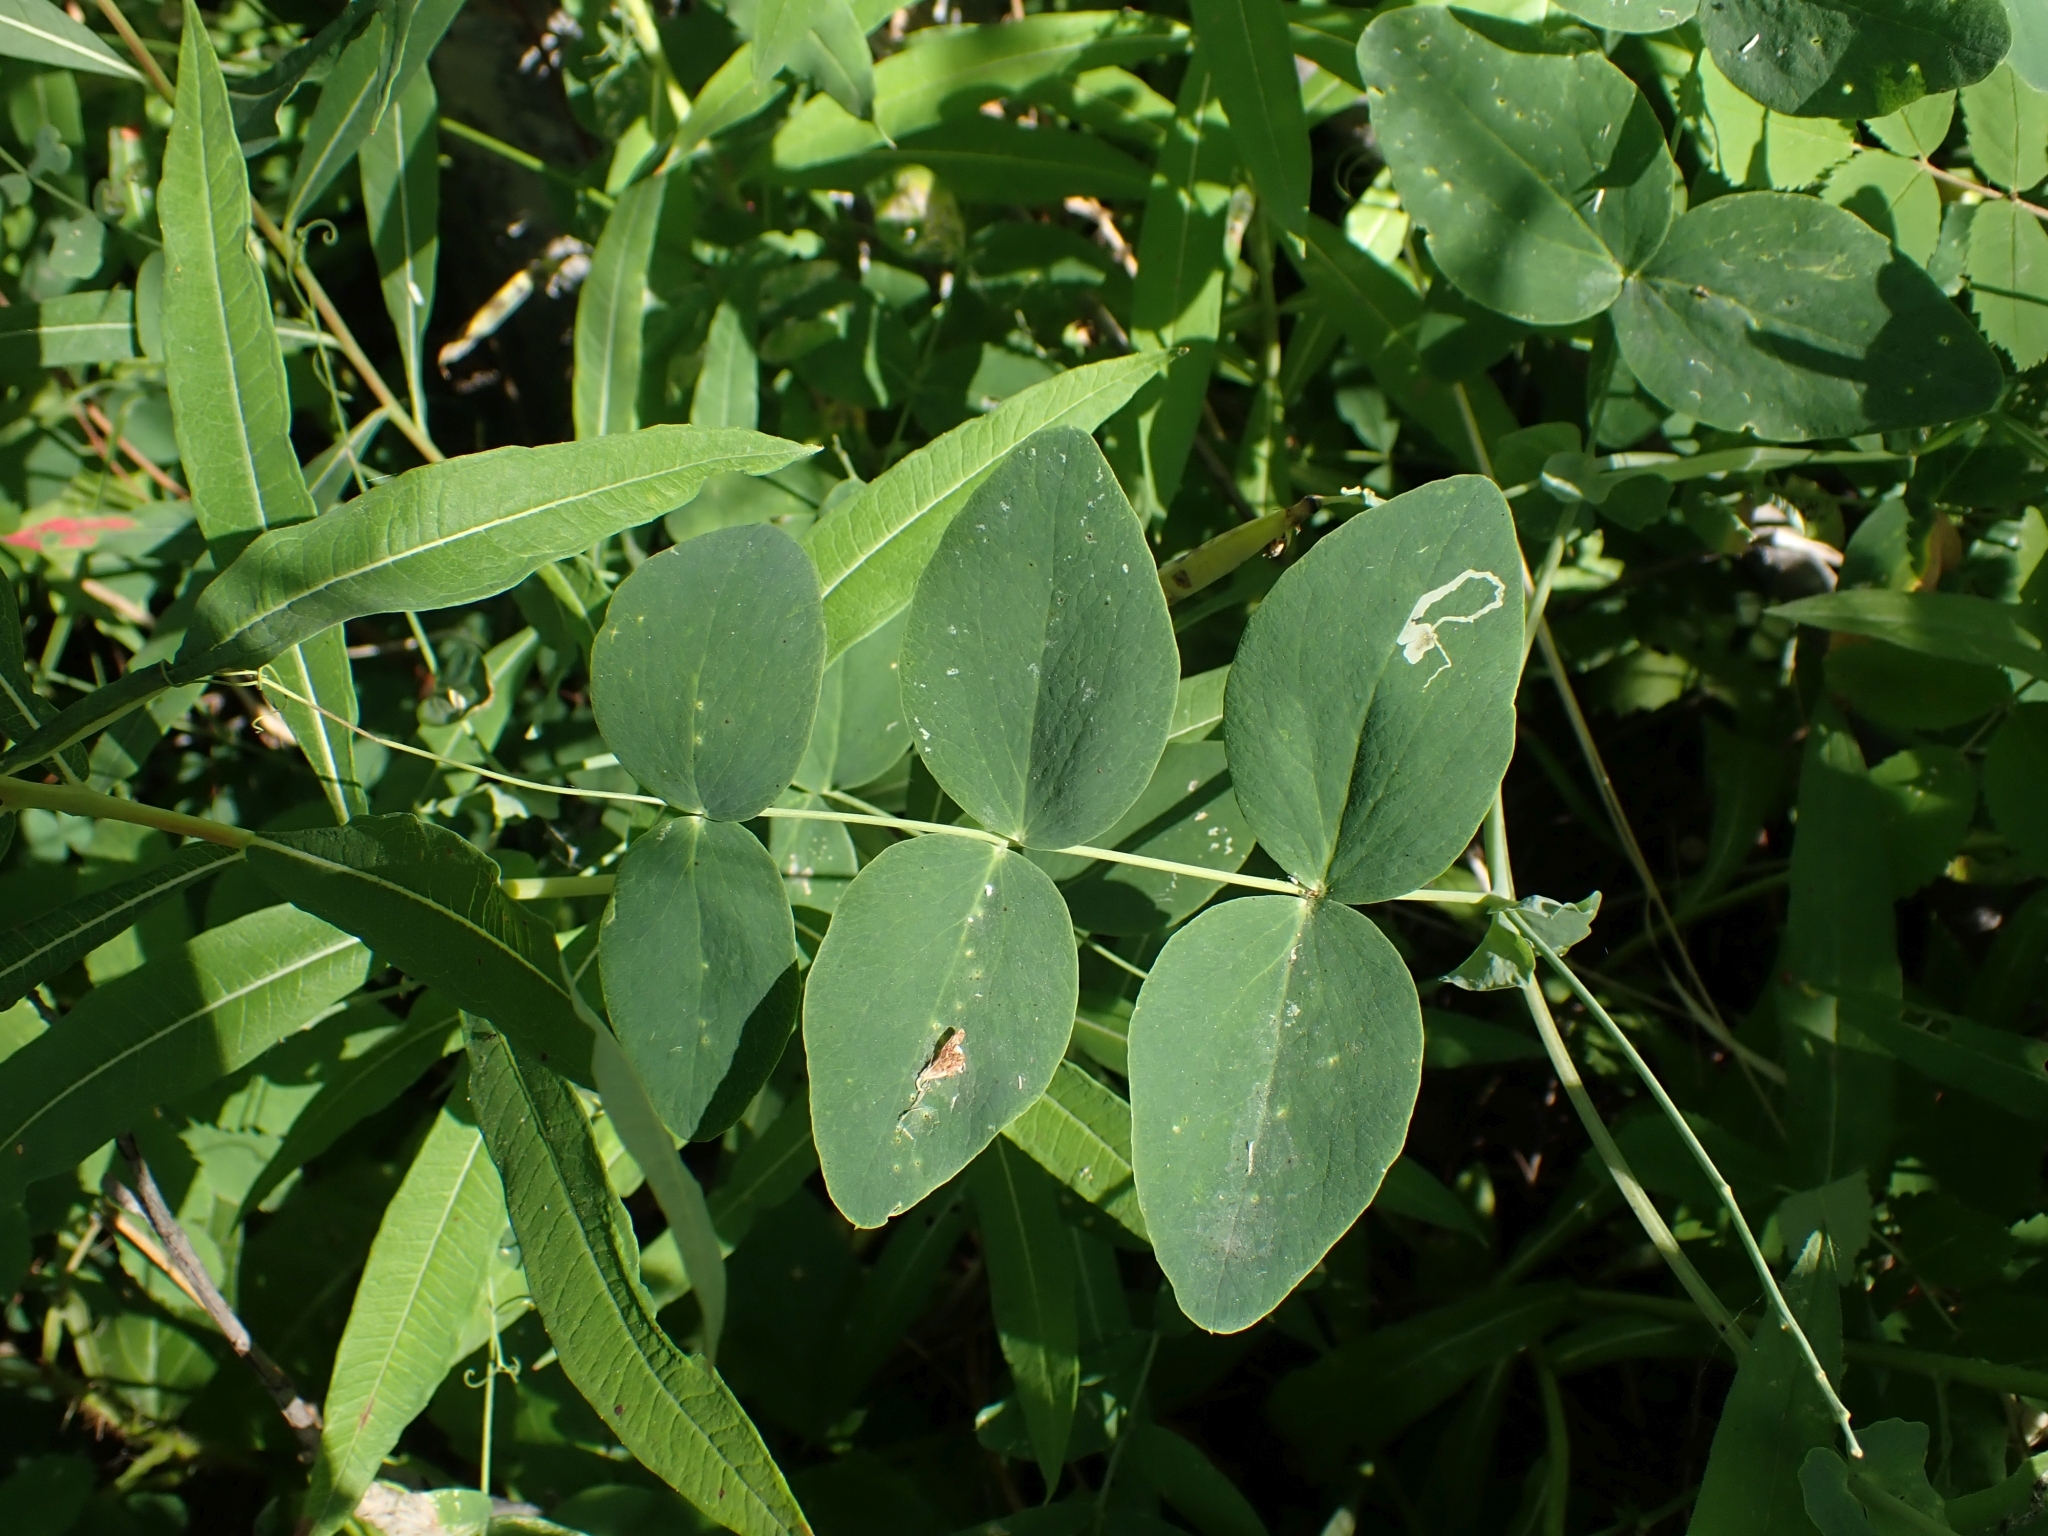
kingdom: Plantae
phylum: Tracheophyta
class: Magnoliopsida
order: Fabales
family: Fabaceae
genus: Lathyrus
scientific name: Lathyrus ochroleucus
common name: Pale vetchling
